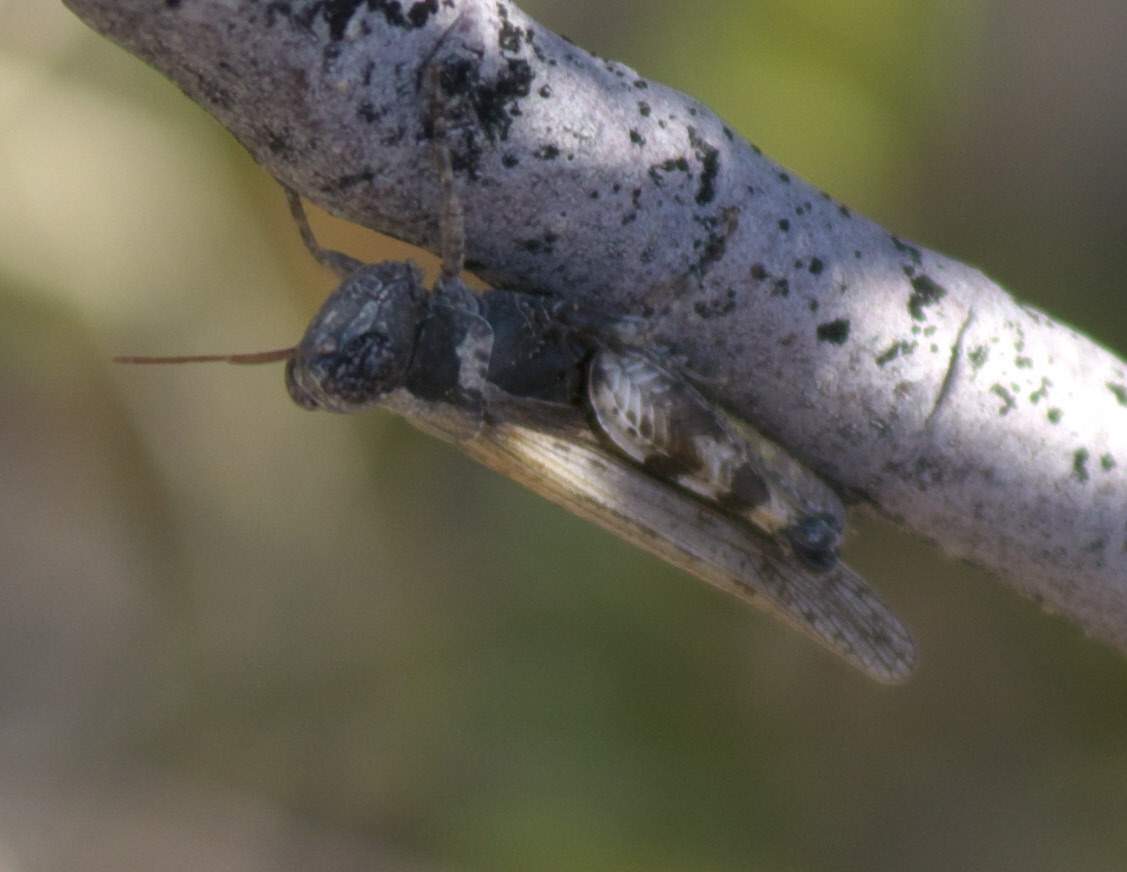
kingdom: Animalia
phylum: Arthropoda
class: Insecta
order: Orthoptera
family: Acrididae
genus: Ligurotettix
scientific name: Ligurotettix coquilletti
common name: Desert clicker grasshopper
